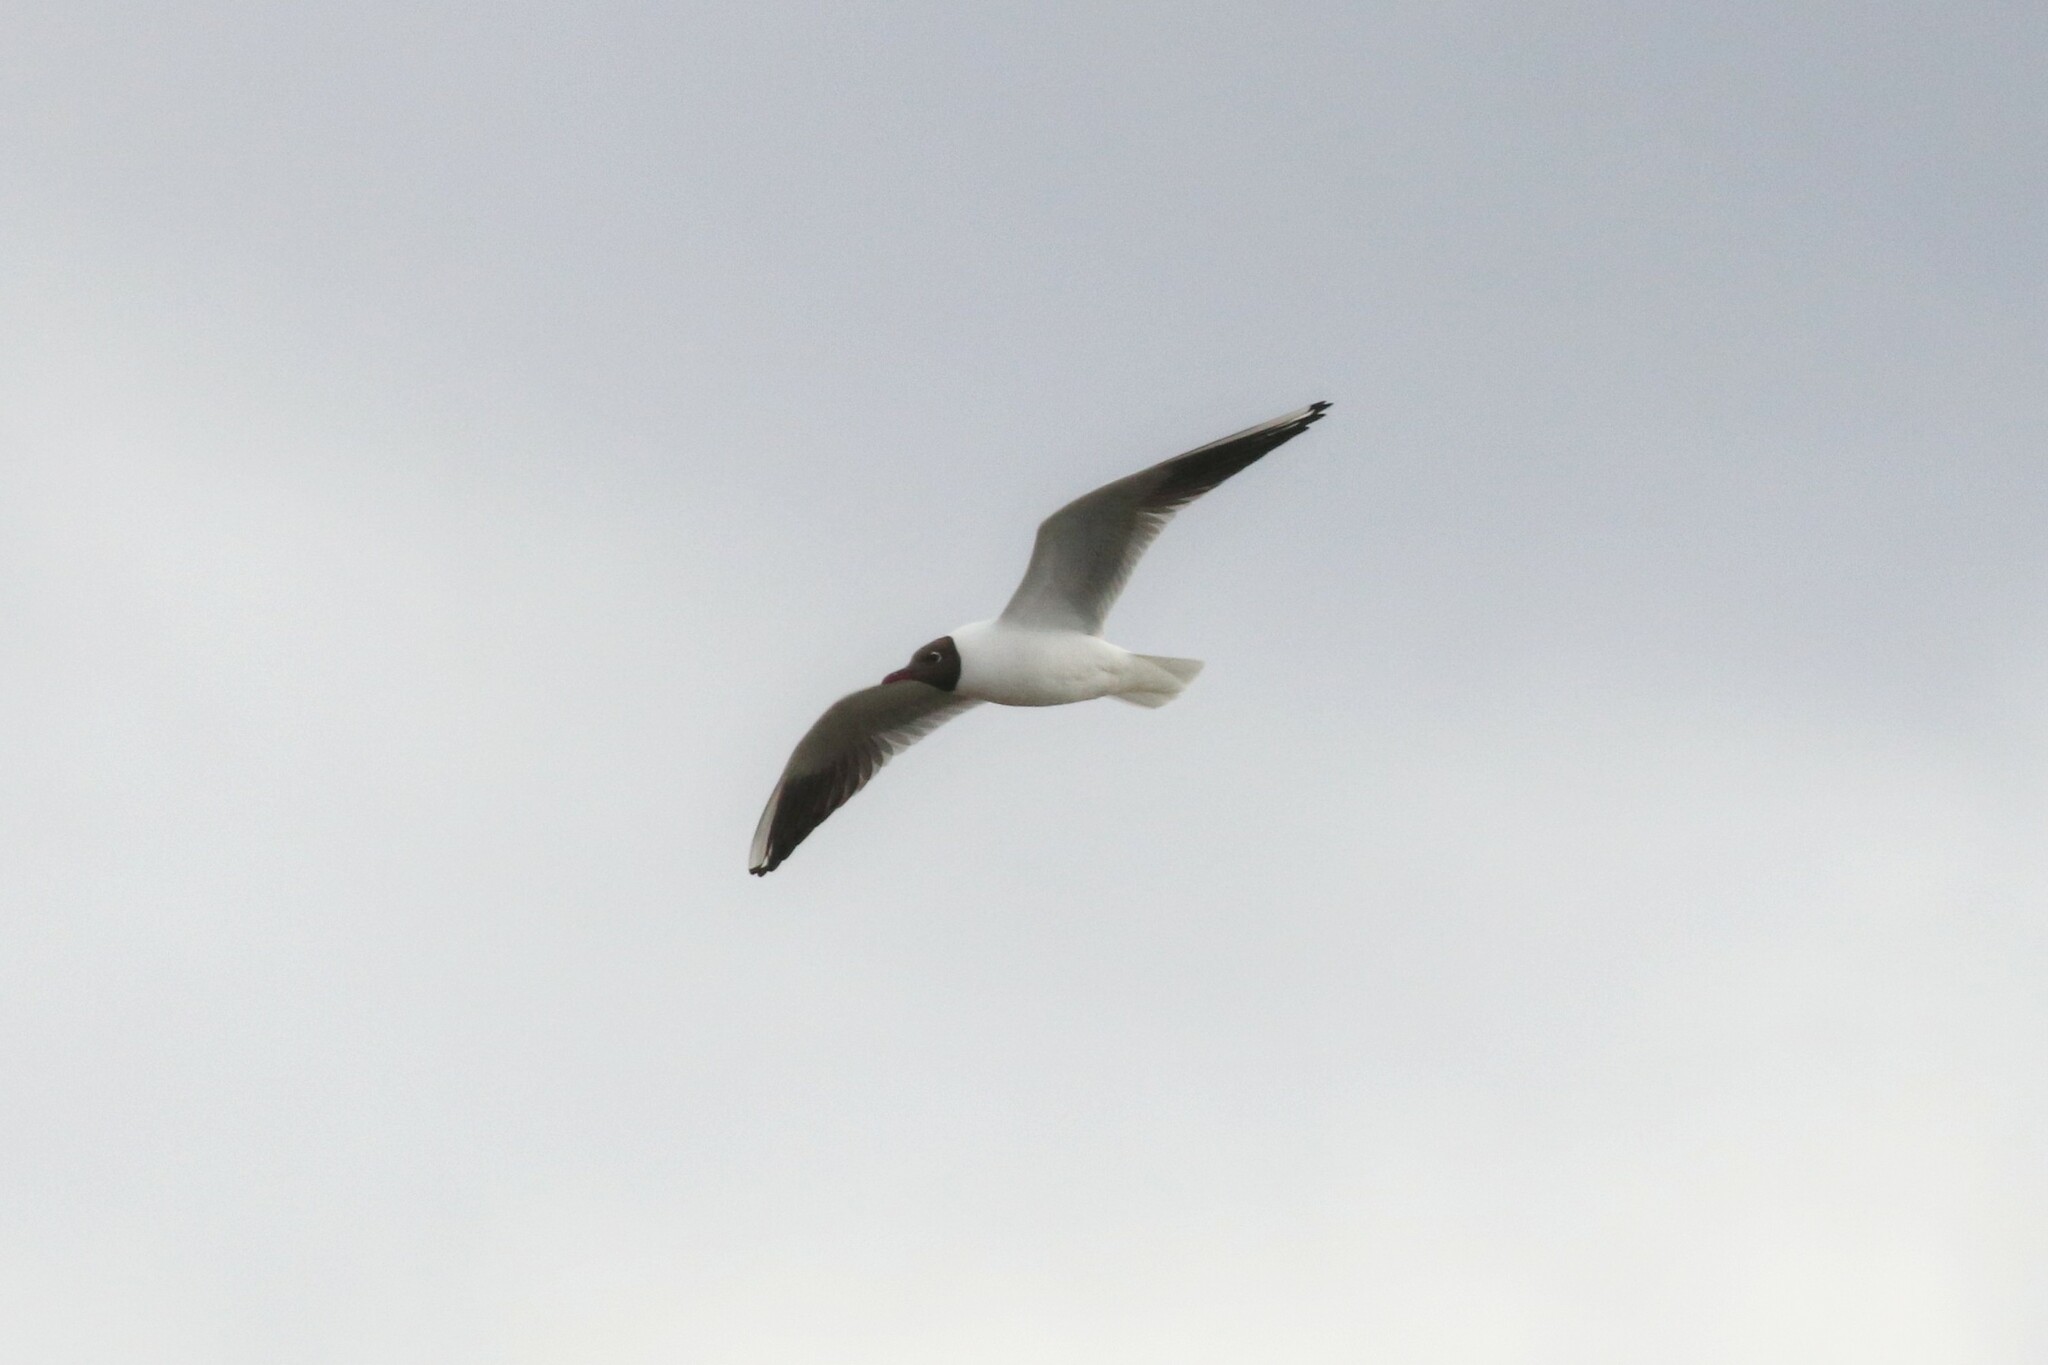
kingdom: Animalia
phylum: Chordata
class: Aves
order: Charadriiformes
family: Laridae
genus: Chroicocephalus
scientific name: Chroicocephalus ridibundus
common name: Black-headed gull
